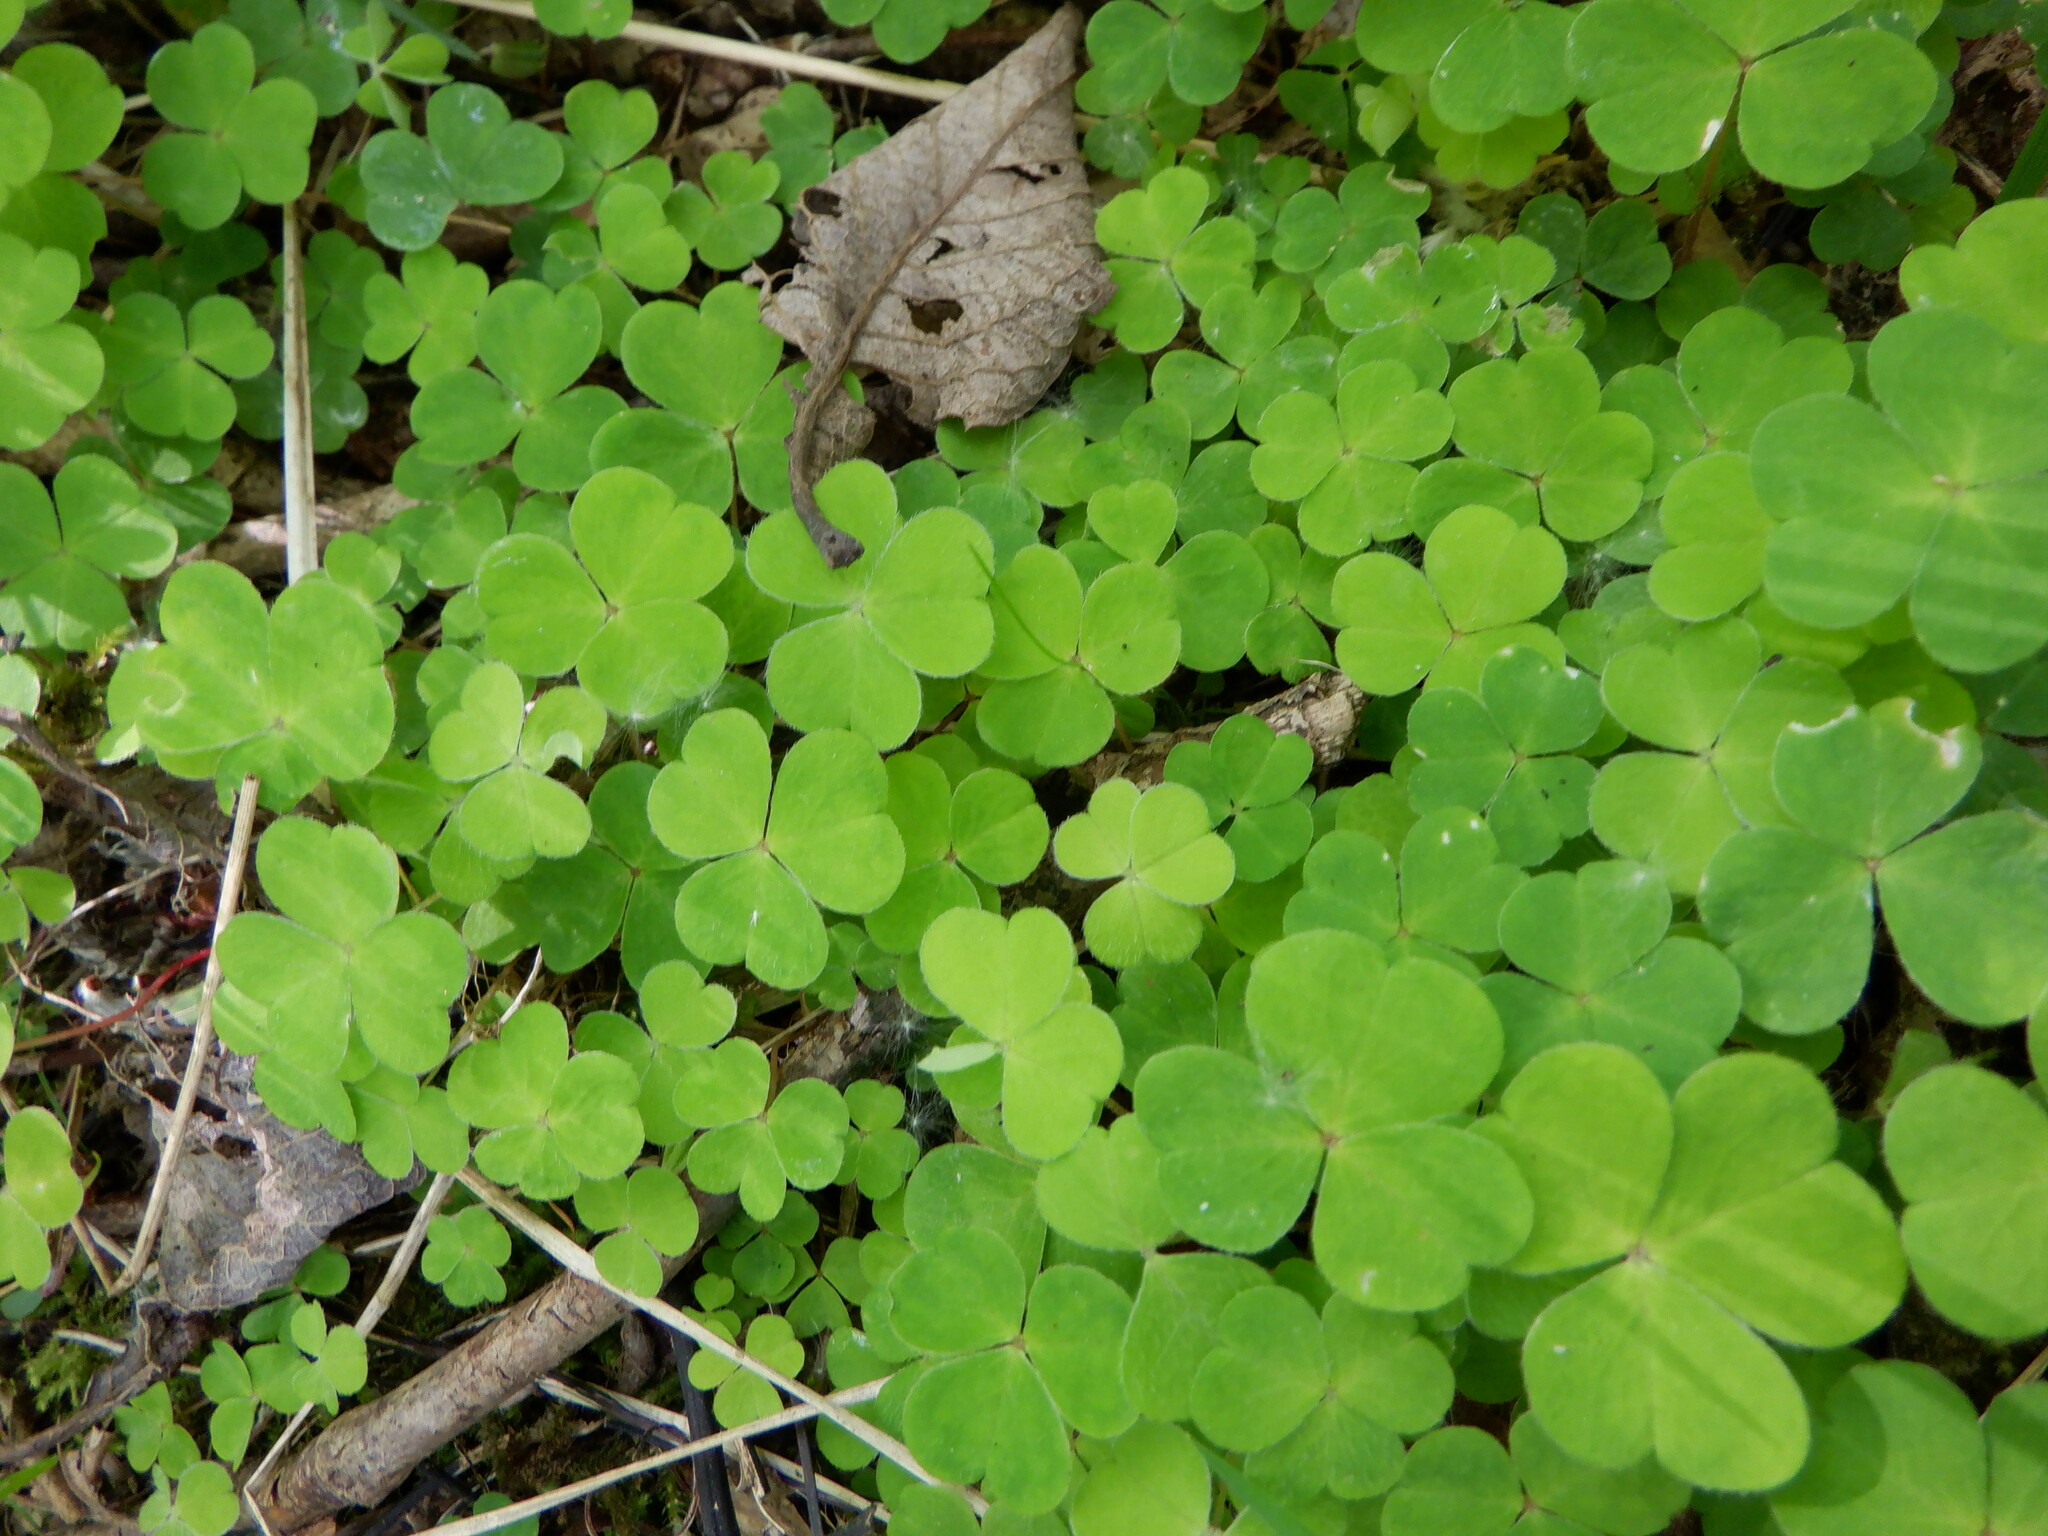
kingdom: Plantae
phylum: Tracheophyta
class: Magnoliopsida
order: Oxalidales
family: Oxalidaceae
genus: Oxalis
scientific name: Oxalis acetosella
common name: Wood-sorrel
